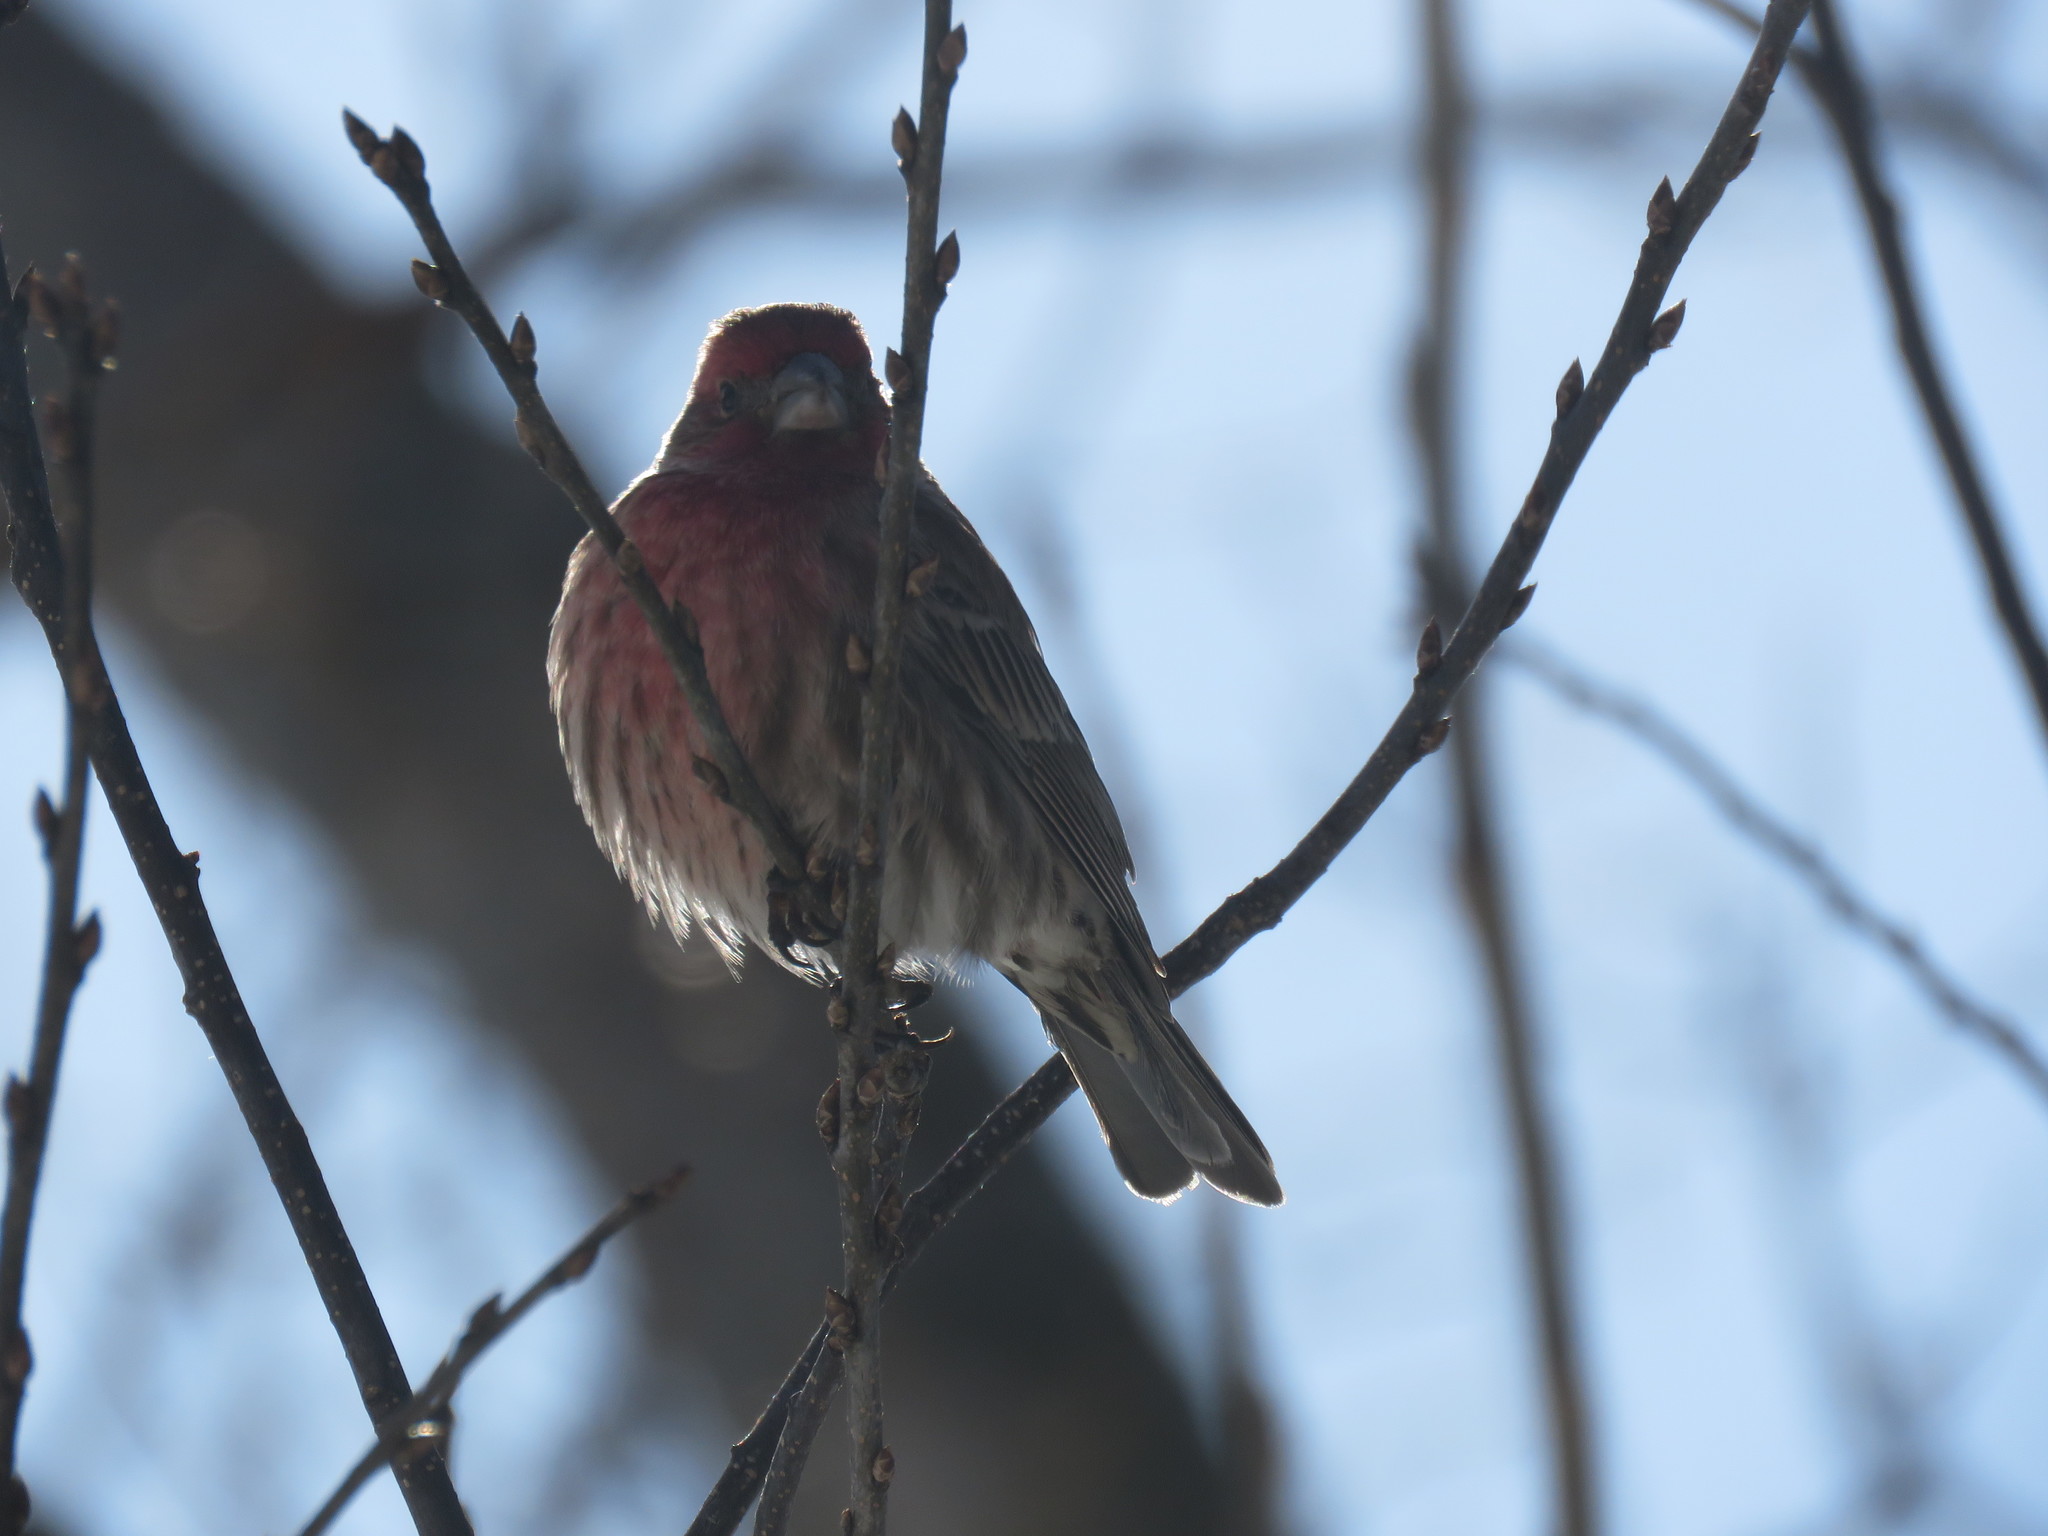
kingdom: Animalia
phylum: Chordata
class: Aves
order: Passeriformes
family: Fringillidae
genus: Haemorhous
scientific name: Haemorhous mexicanus
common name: House finch
